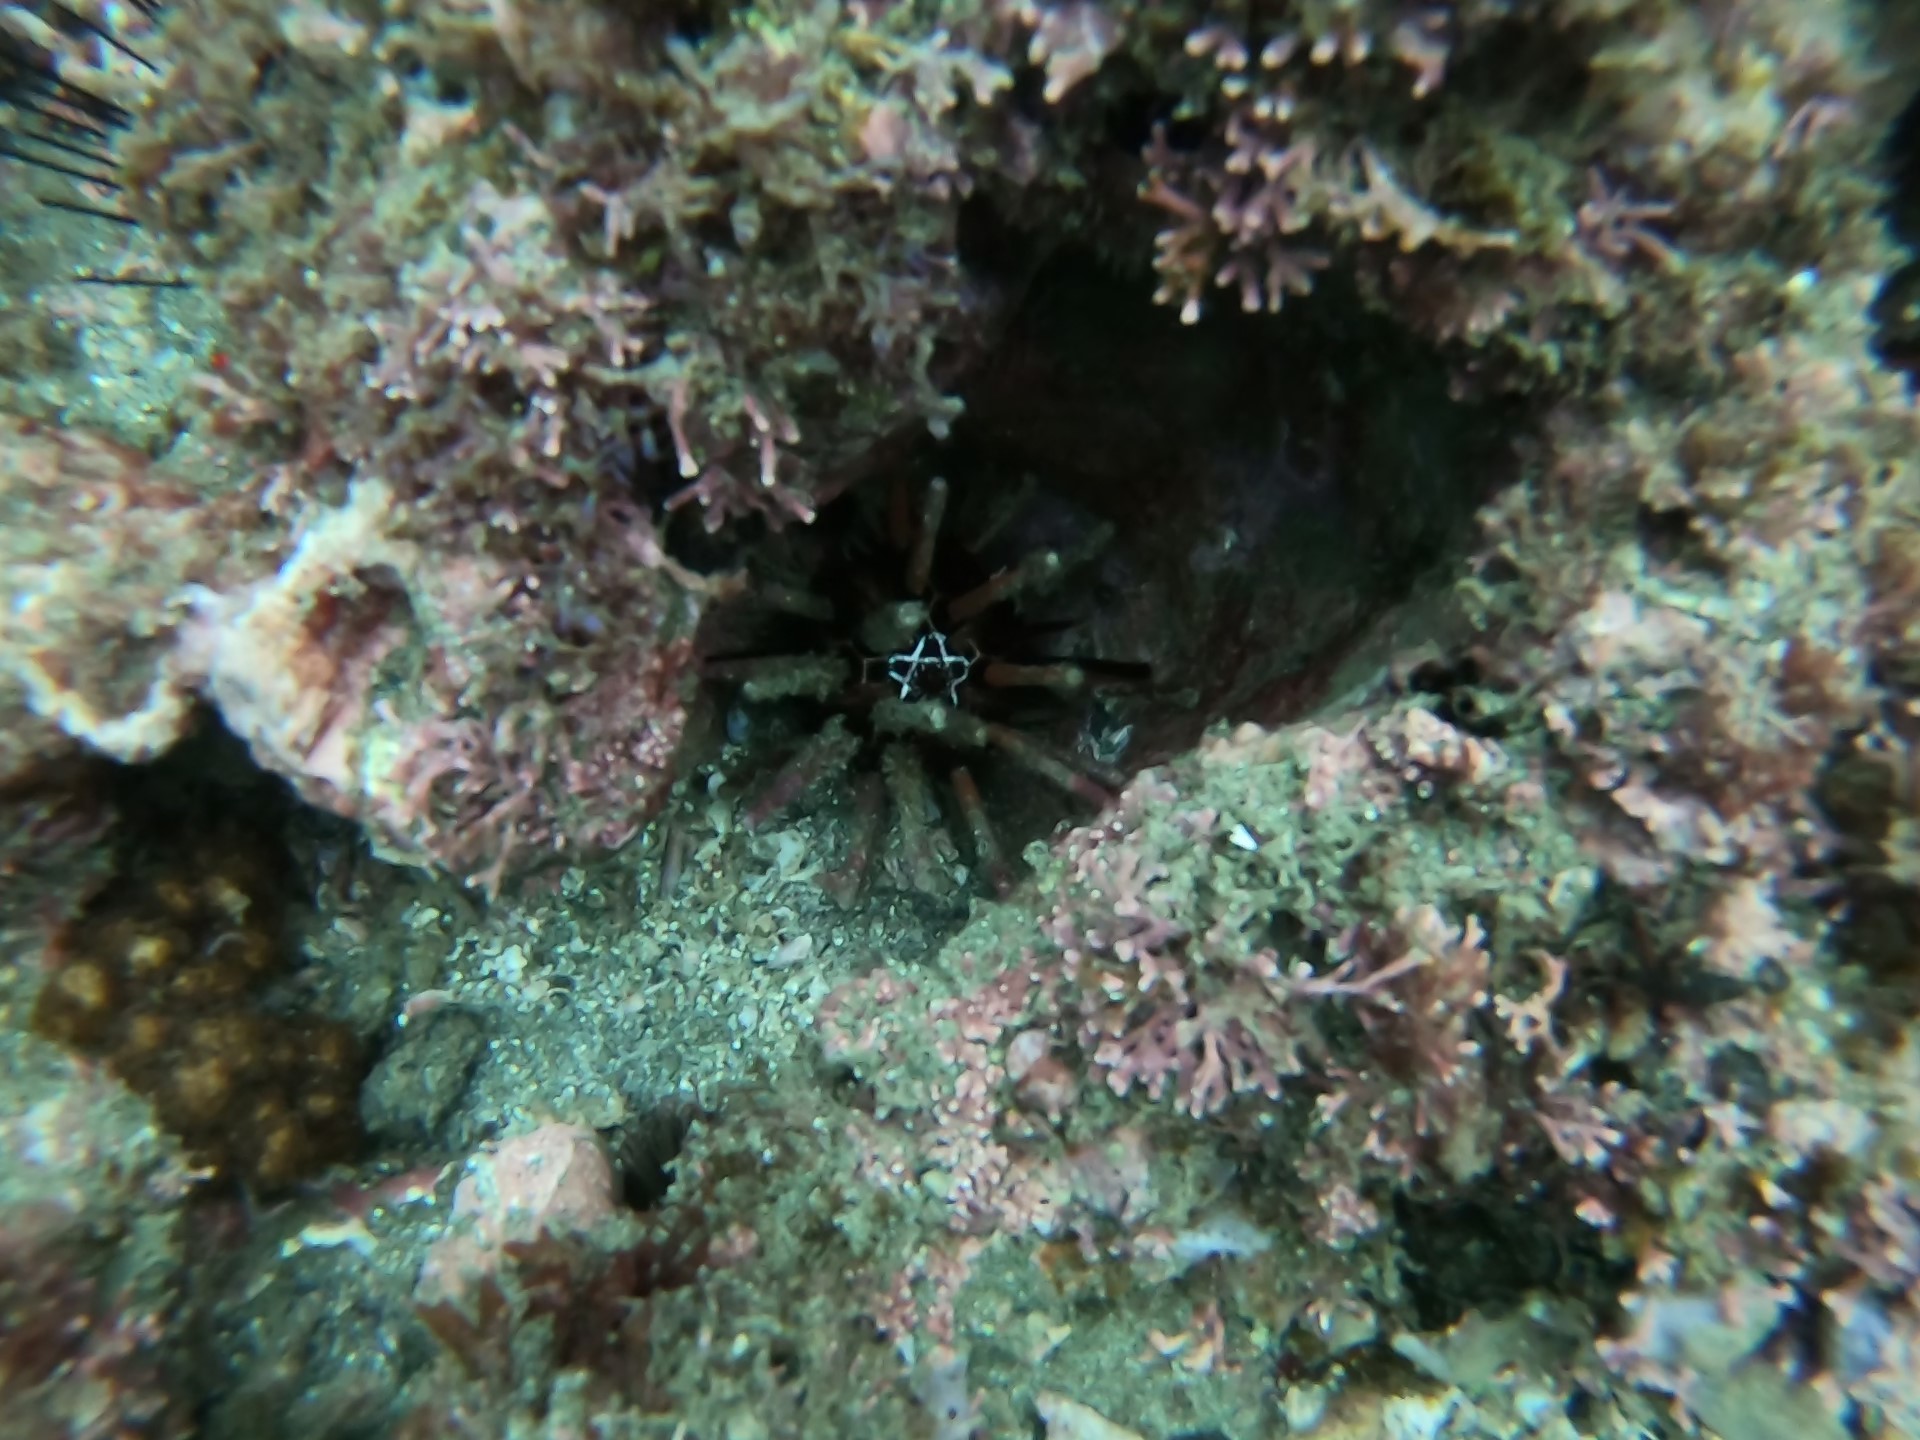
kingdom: Animalia
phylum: Echinodermata
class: Echinoidea
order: Cidaroida
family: Cidaridae
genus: Eucidaris
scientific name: Eucidaris thouarsii
